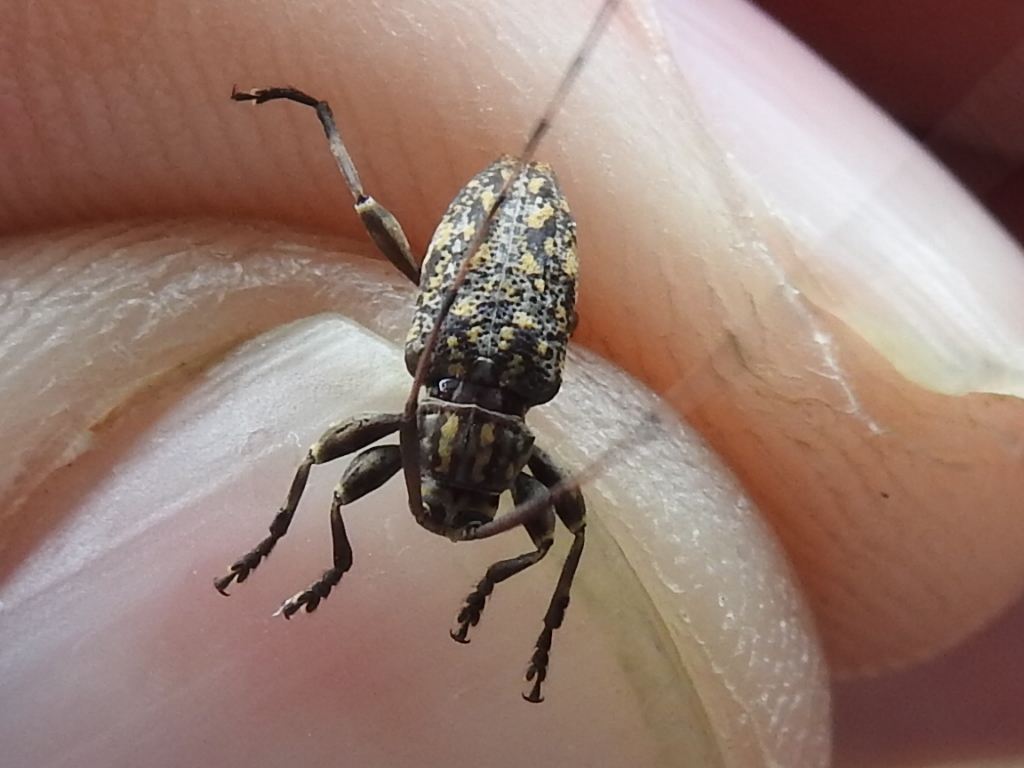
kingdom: Animalia
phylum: Arthropoda
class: Insecta
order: Coleoptera
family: Cerambycidae
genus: Atrypanius
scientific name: Atrypanius haldemani
